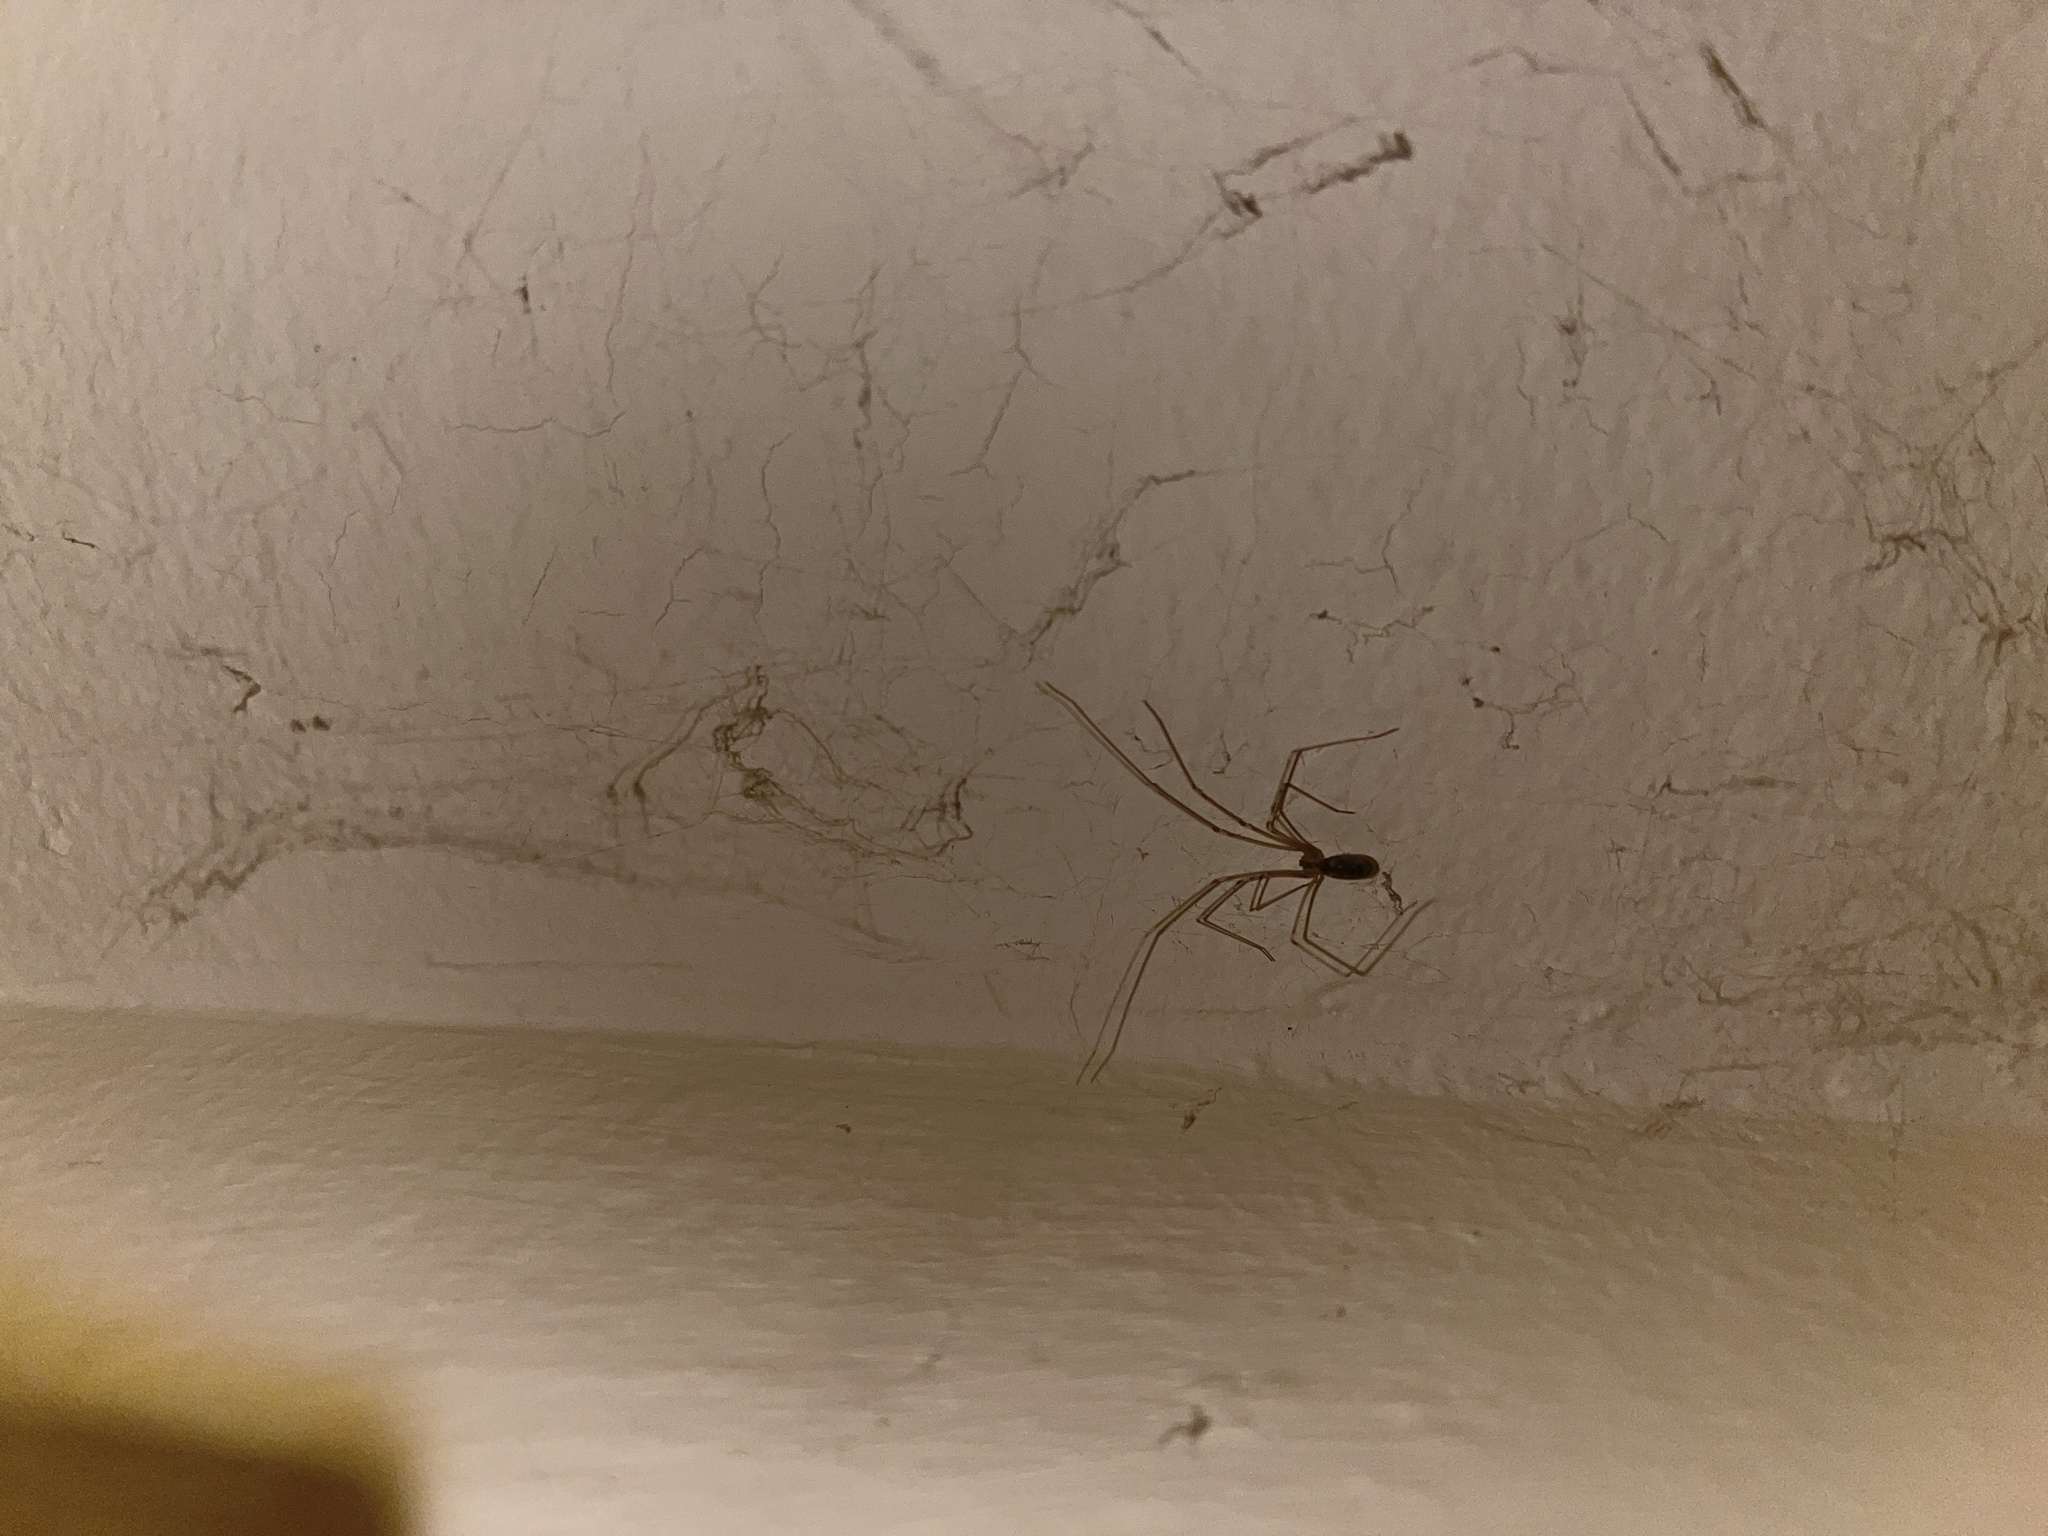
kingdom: Animalia
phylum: Arthropoda
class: Arachnida
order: Araneae
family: Pholcidae
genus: Pholcus
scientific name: Pholcus phalangioides
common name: Longbodied cellar spider
